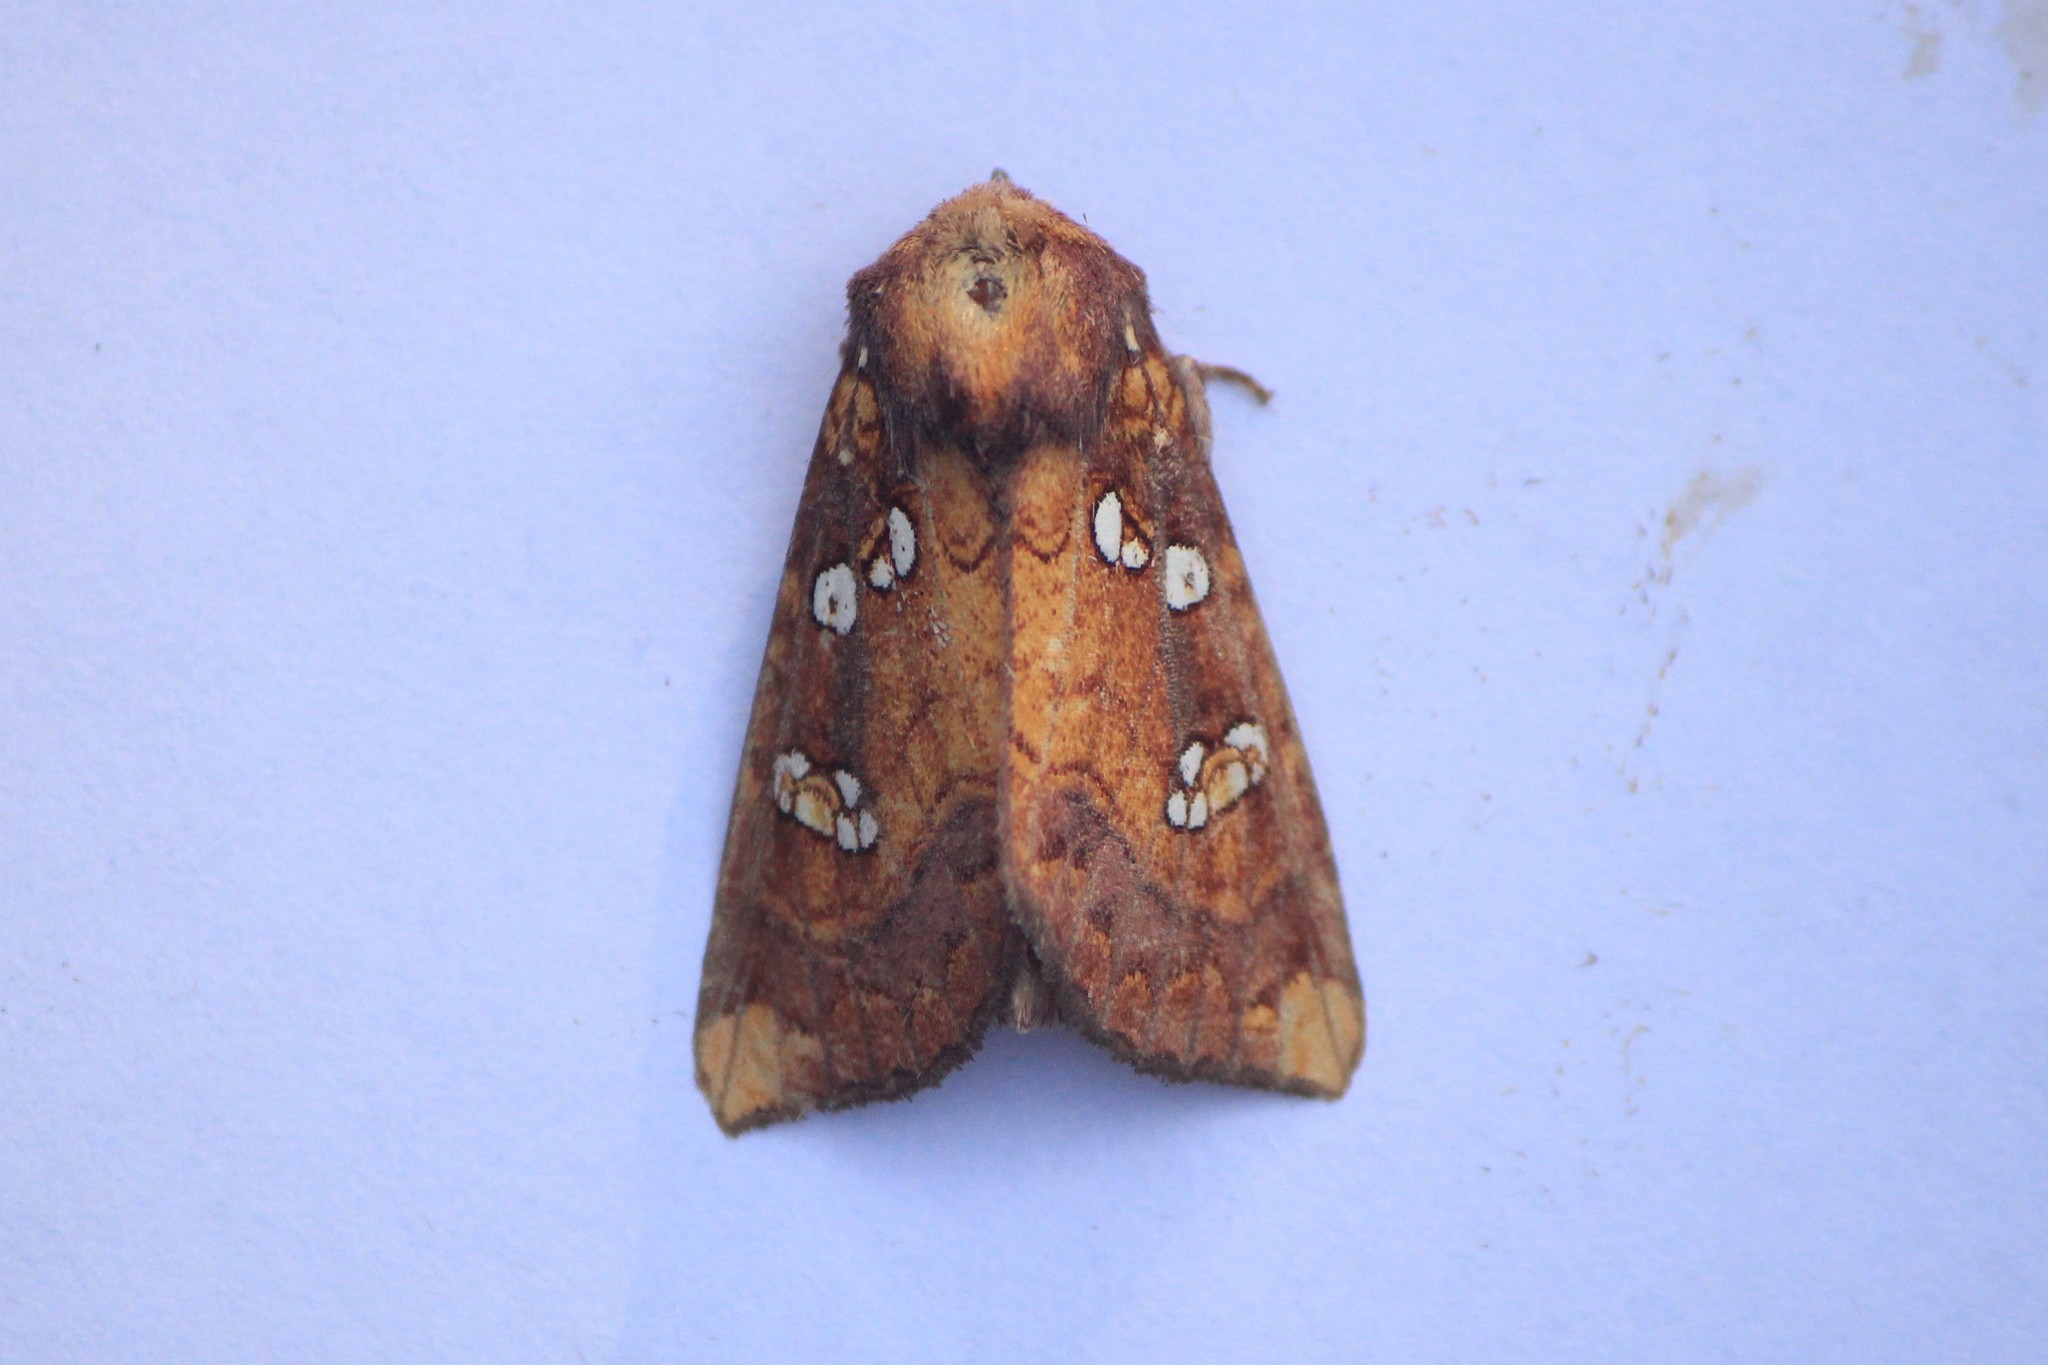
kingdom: Animalia
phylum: Arthropoda
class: Insecta
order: Lepidoptera
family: Noctuidae
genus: Papaipema
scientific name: Papaipema baptisiae
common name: Wild indigo borer moth
